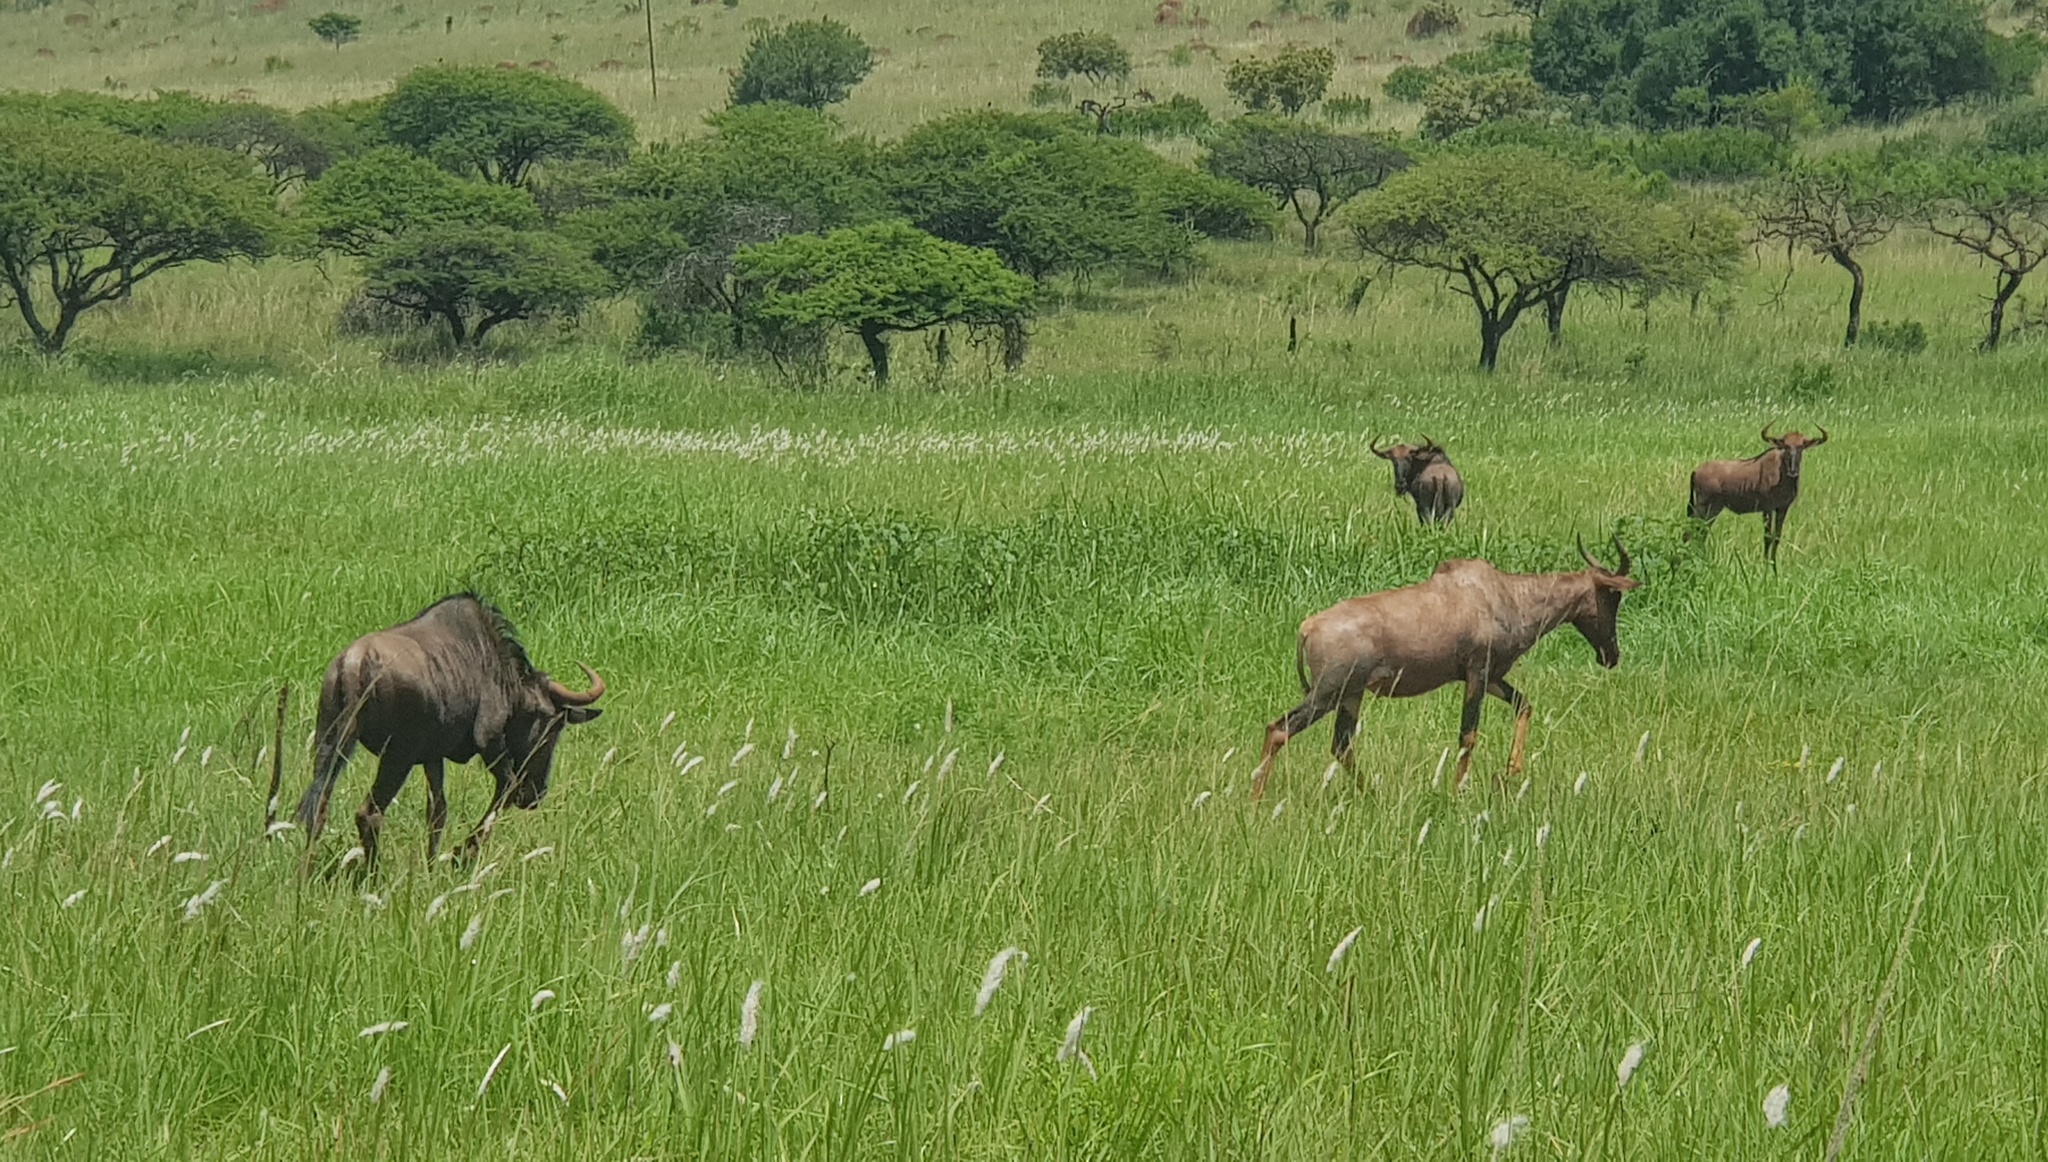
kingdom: Animalia
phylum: Chordata
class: Mammalia
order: Artiodactyla
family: Bovidae
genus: Connochaetes
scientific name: Connochaetes taurinus
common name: Blue wildebeest
